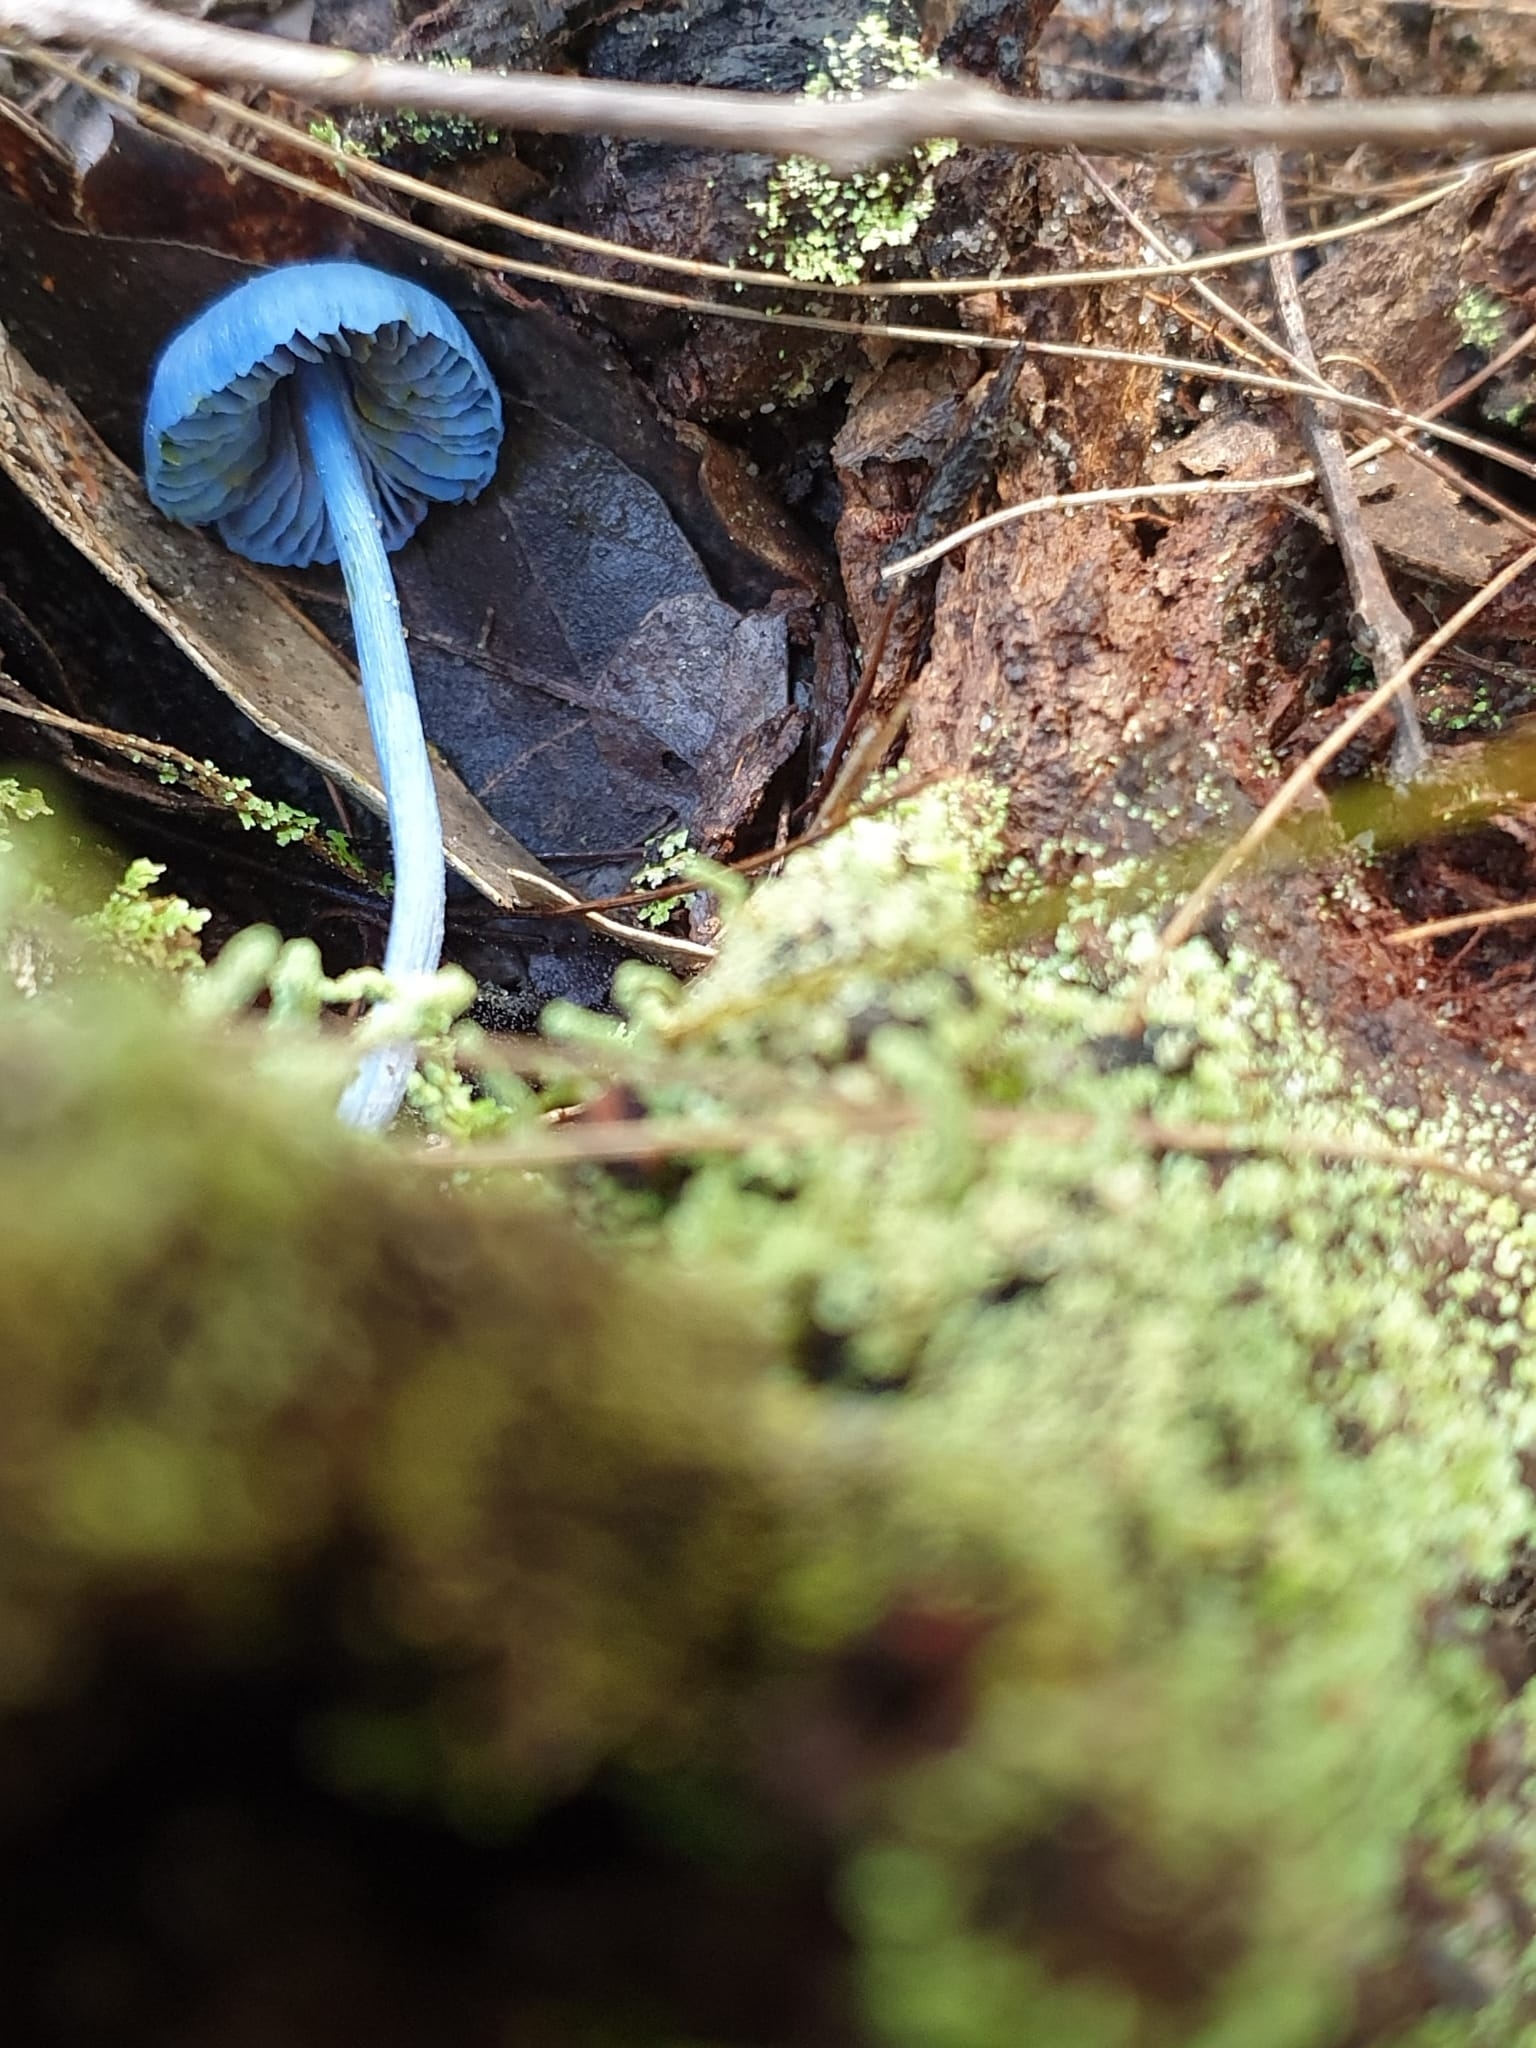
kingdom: Fungi
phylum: Basidiomycota
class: Agaricomycetes
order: Agaricales
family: Entolomataceae
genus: Entoloma
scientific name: Entoloma virescens
